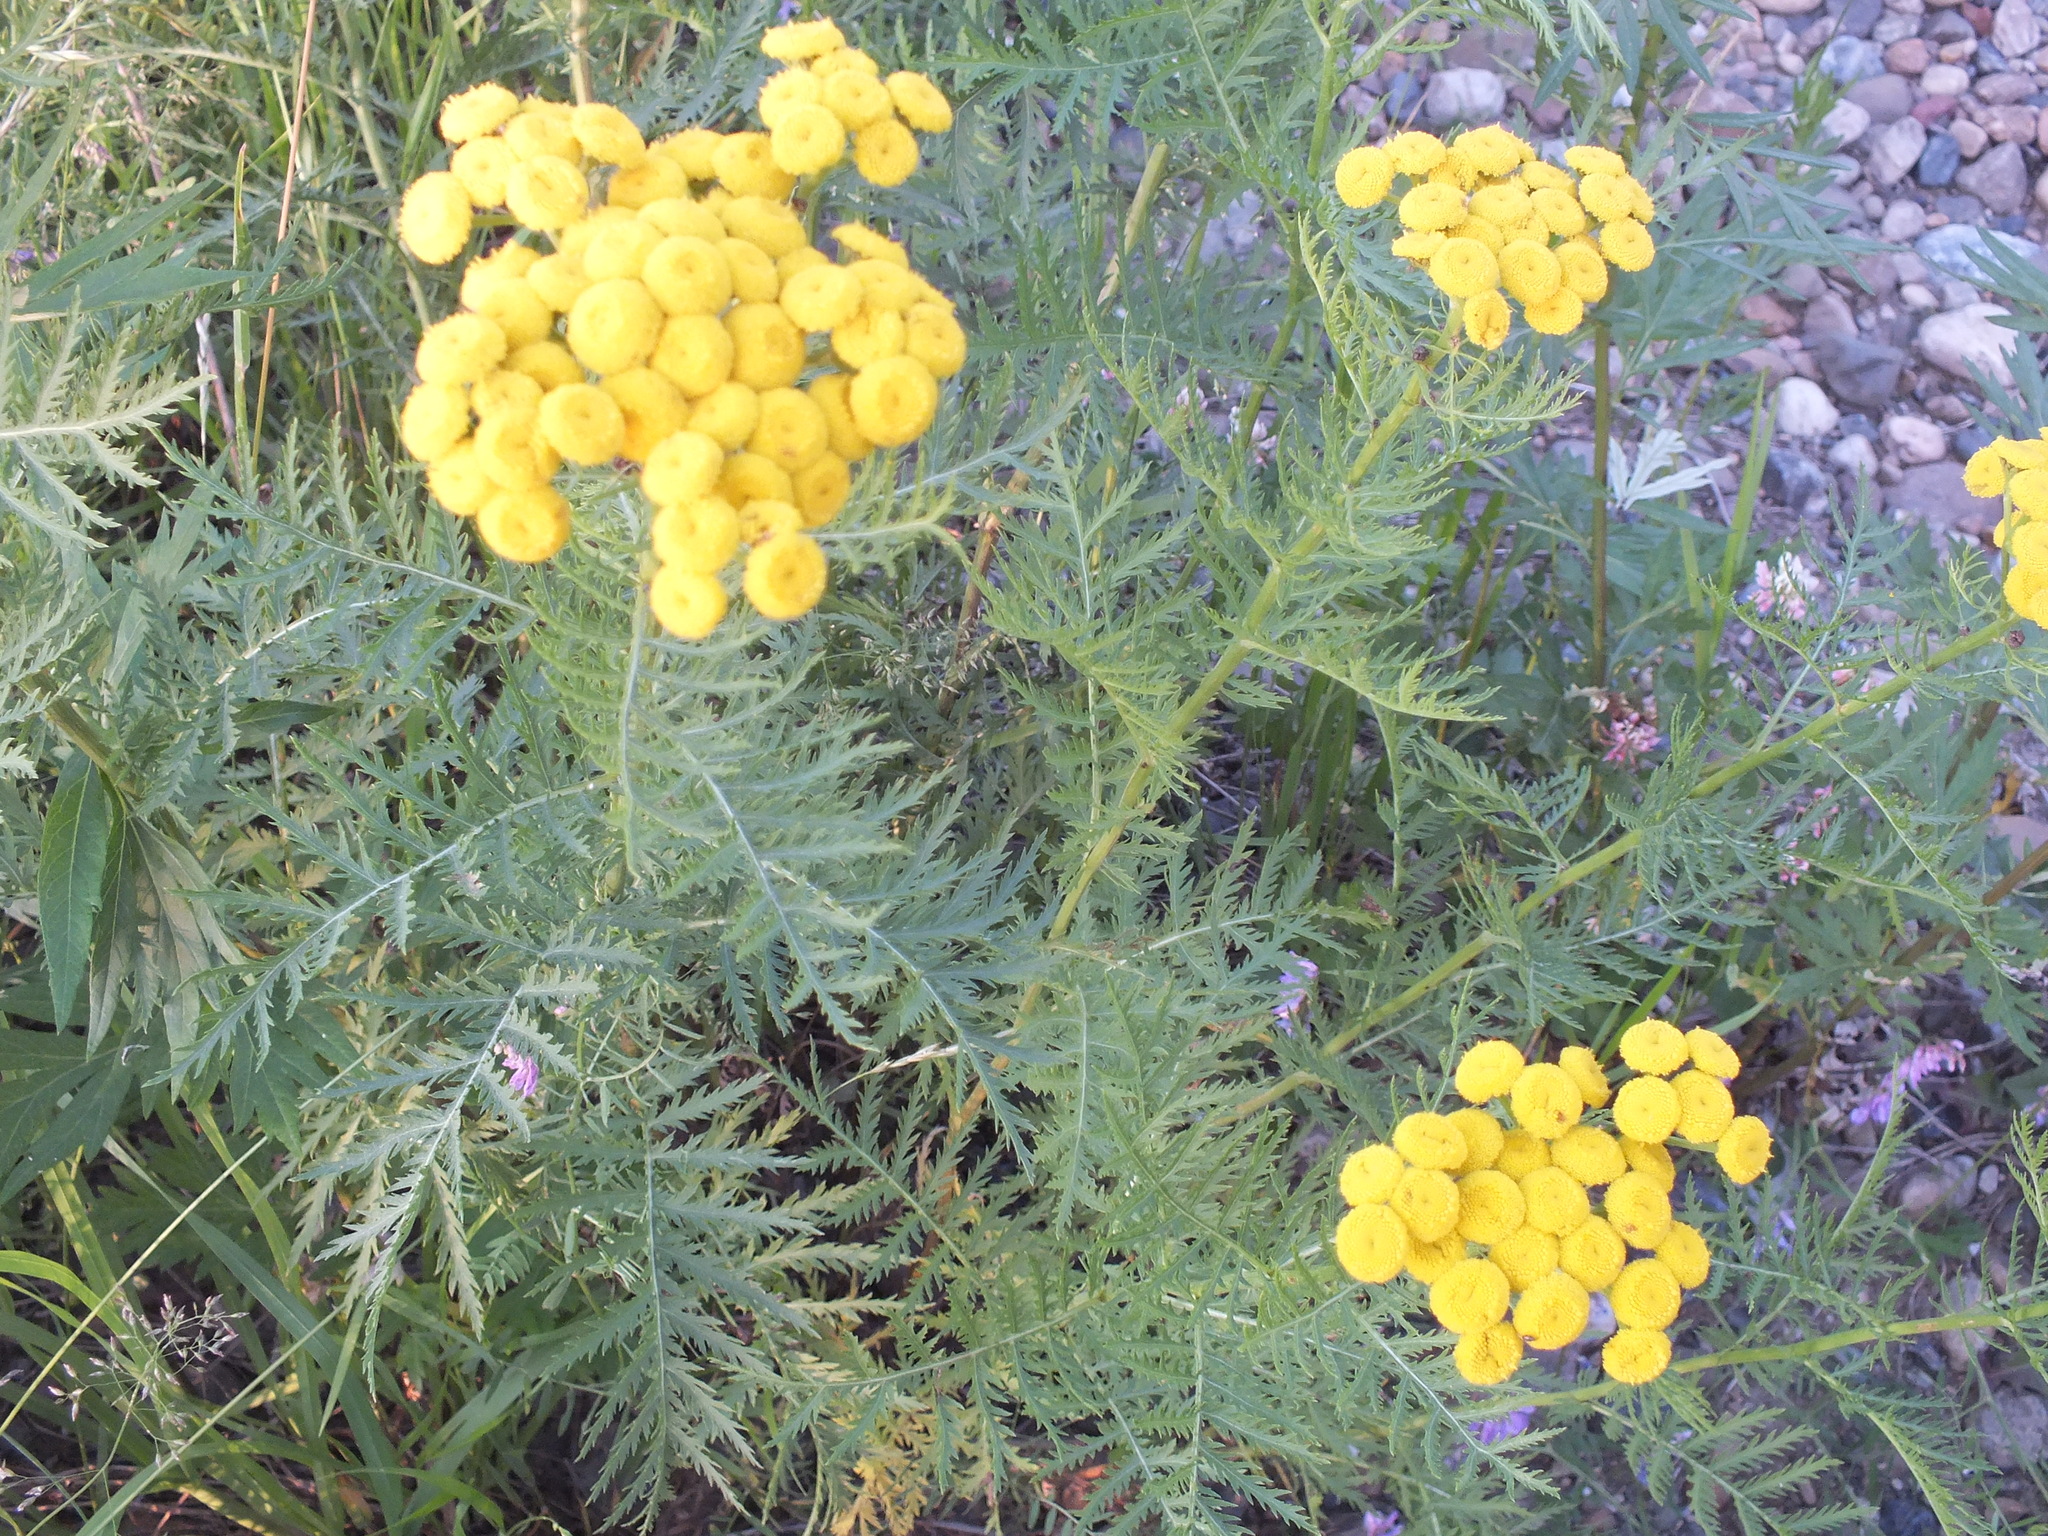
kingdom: Plantae
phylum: Tracheophyta
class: Magnoliopsida
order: Asterales
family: Asteraceae
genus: Tanacetum
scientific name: Tanacetum vulgare
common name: Common tansy
